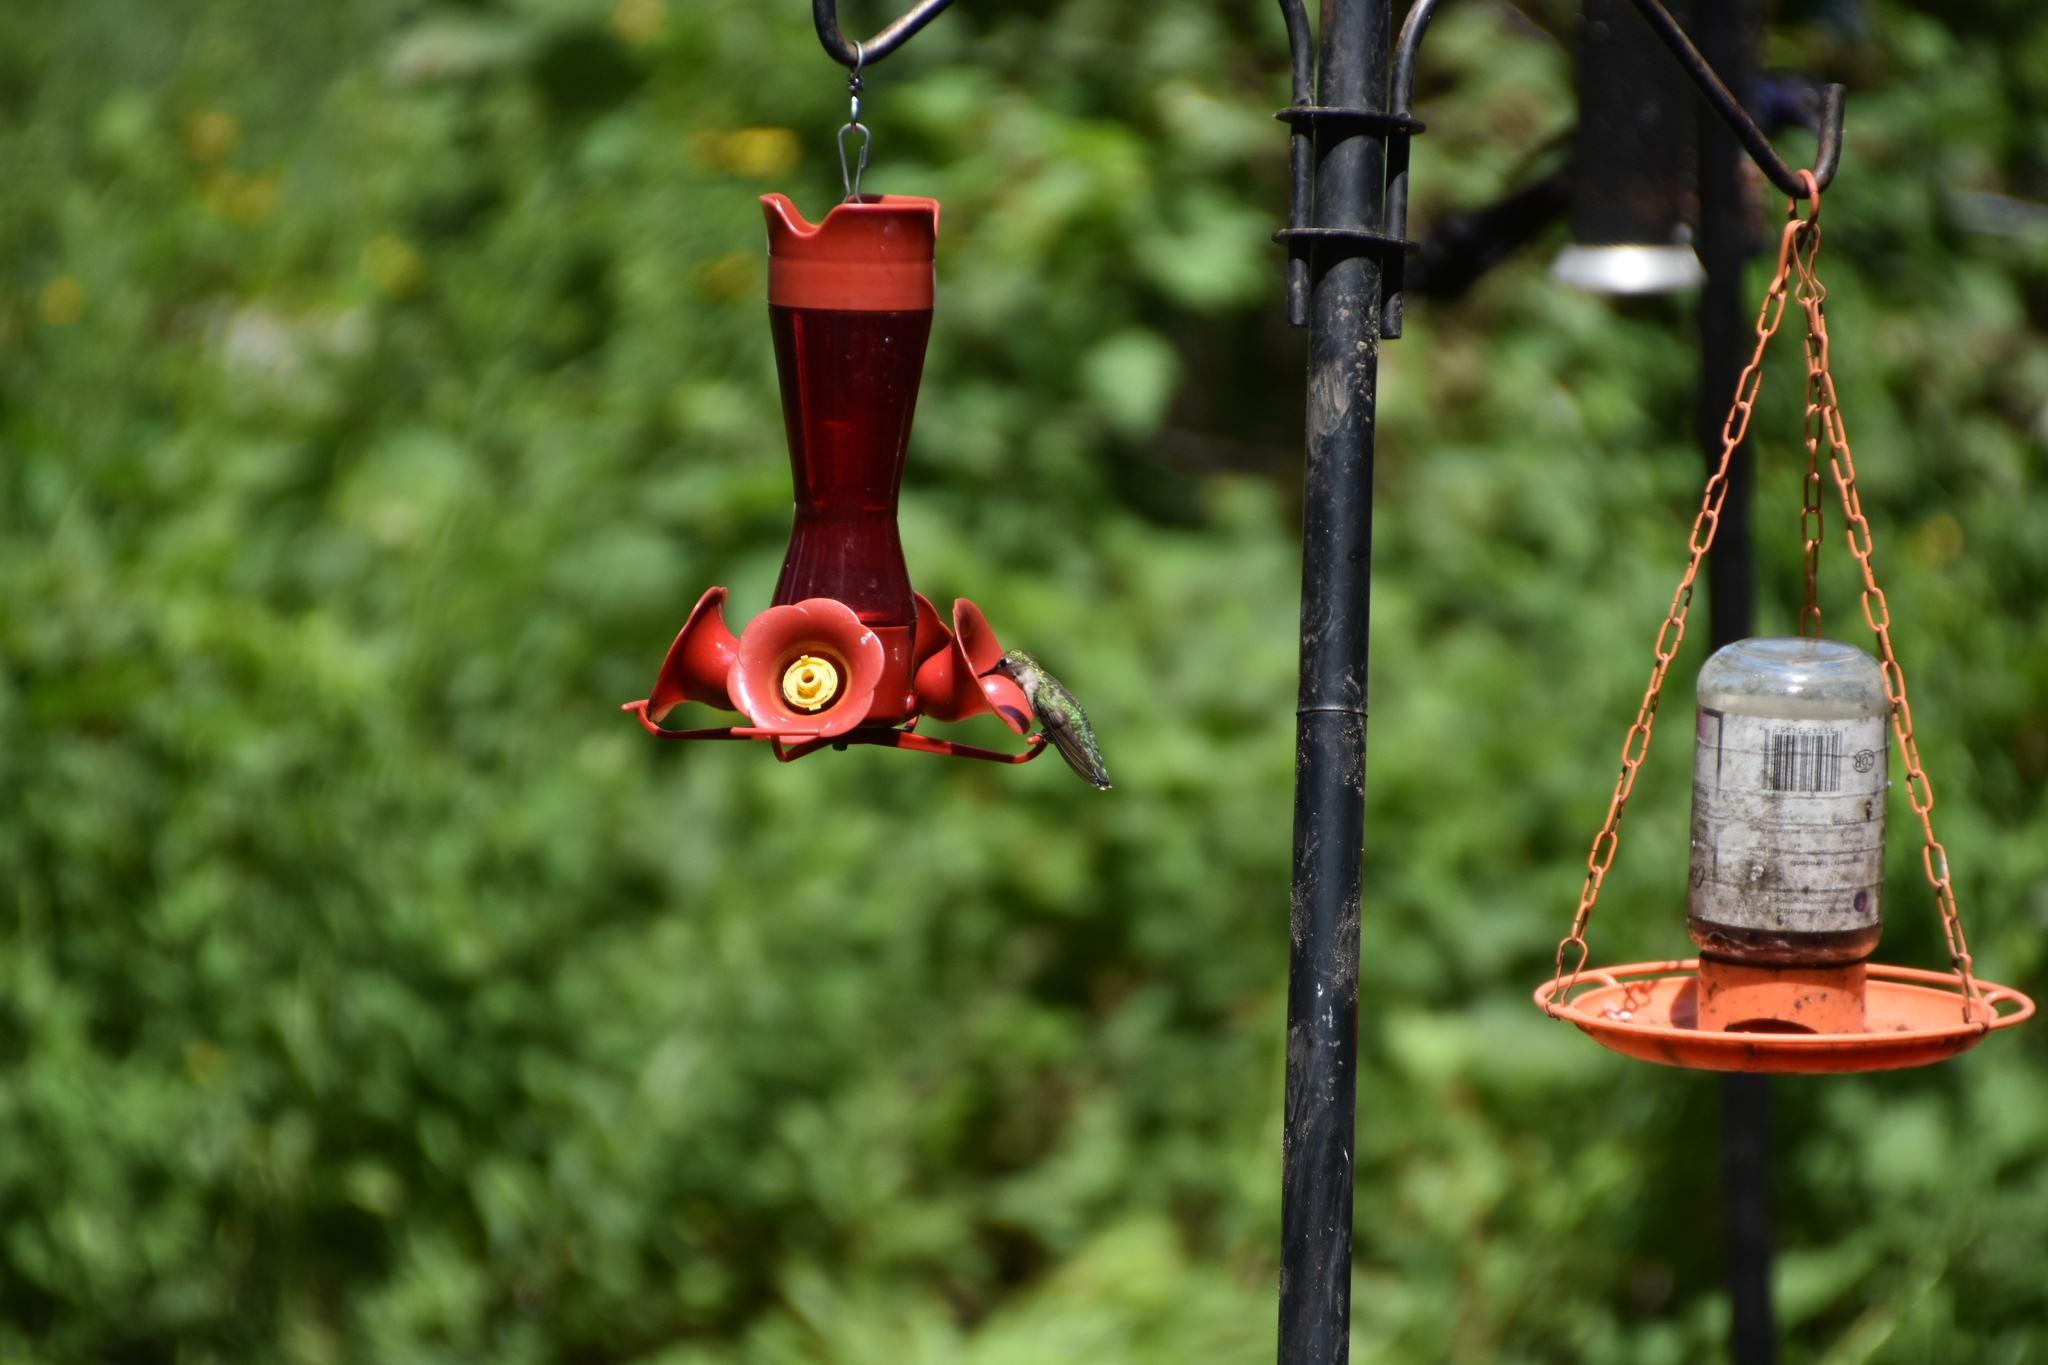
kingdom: Animalia
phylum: Chordata
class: Aves
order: Apodiformes
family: Trochilidae
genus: Archilochus
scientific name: Archilochus colubris
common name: Ruby-throated hummingbird
